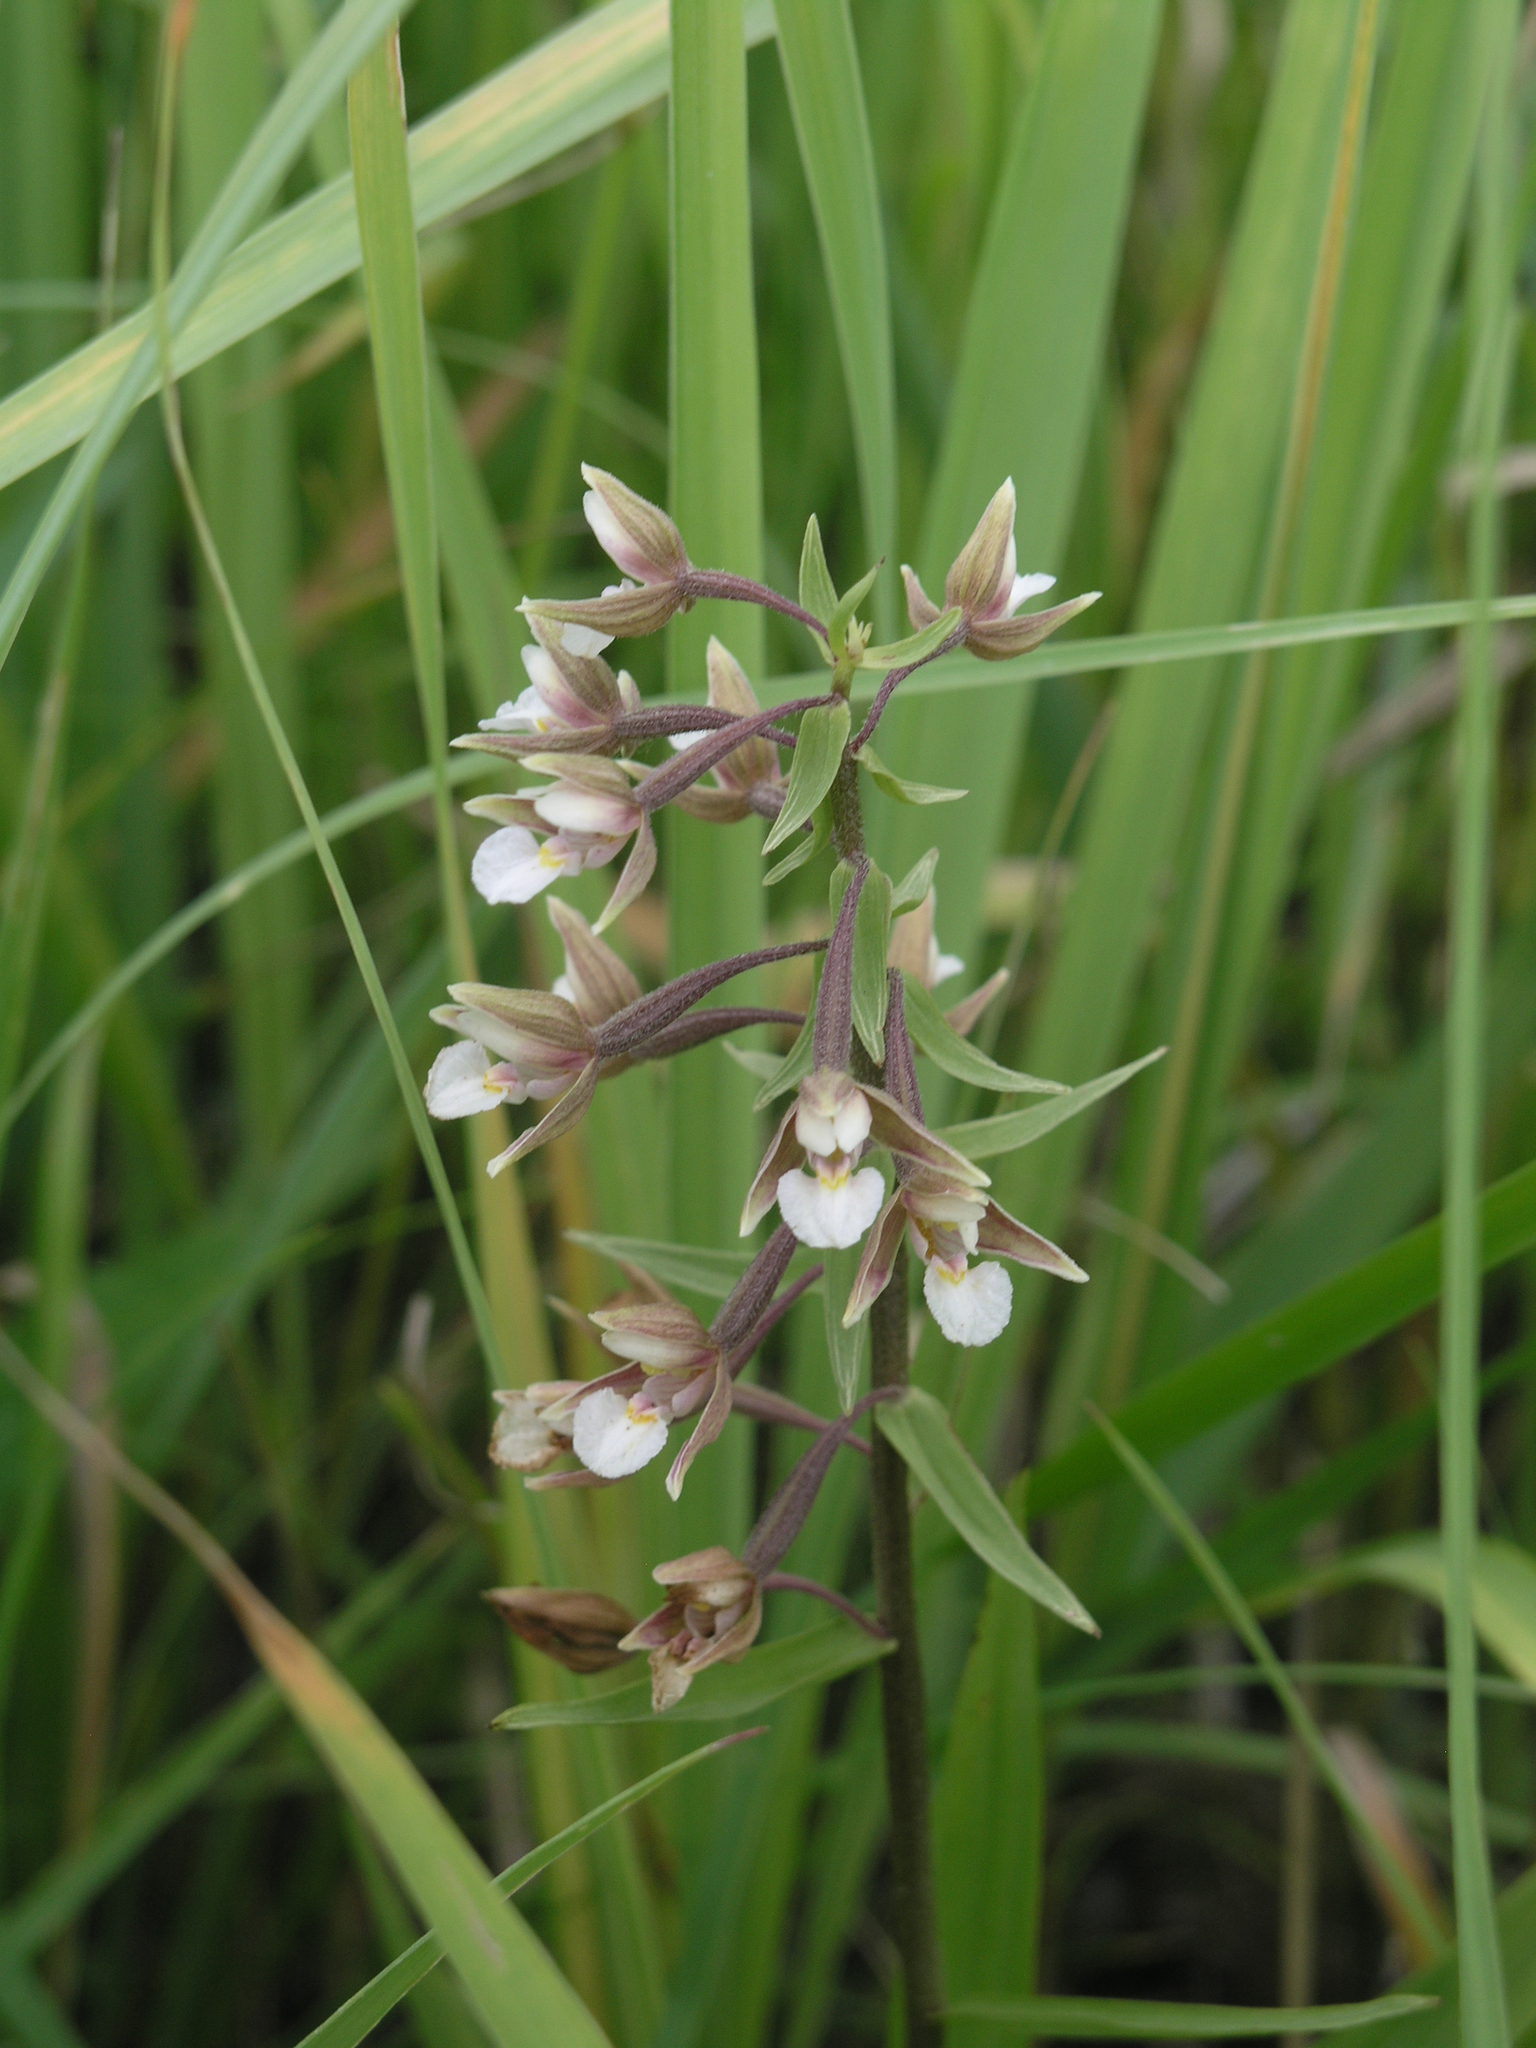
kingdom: Plantae
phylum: Tracheophyta
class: Liliopsida
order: Asparagales
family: Orchidaceae
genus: Epipactis
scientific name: Epipactis palustris
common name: Marsh helleborine
